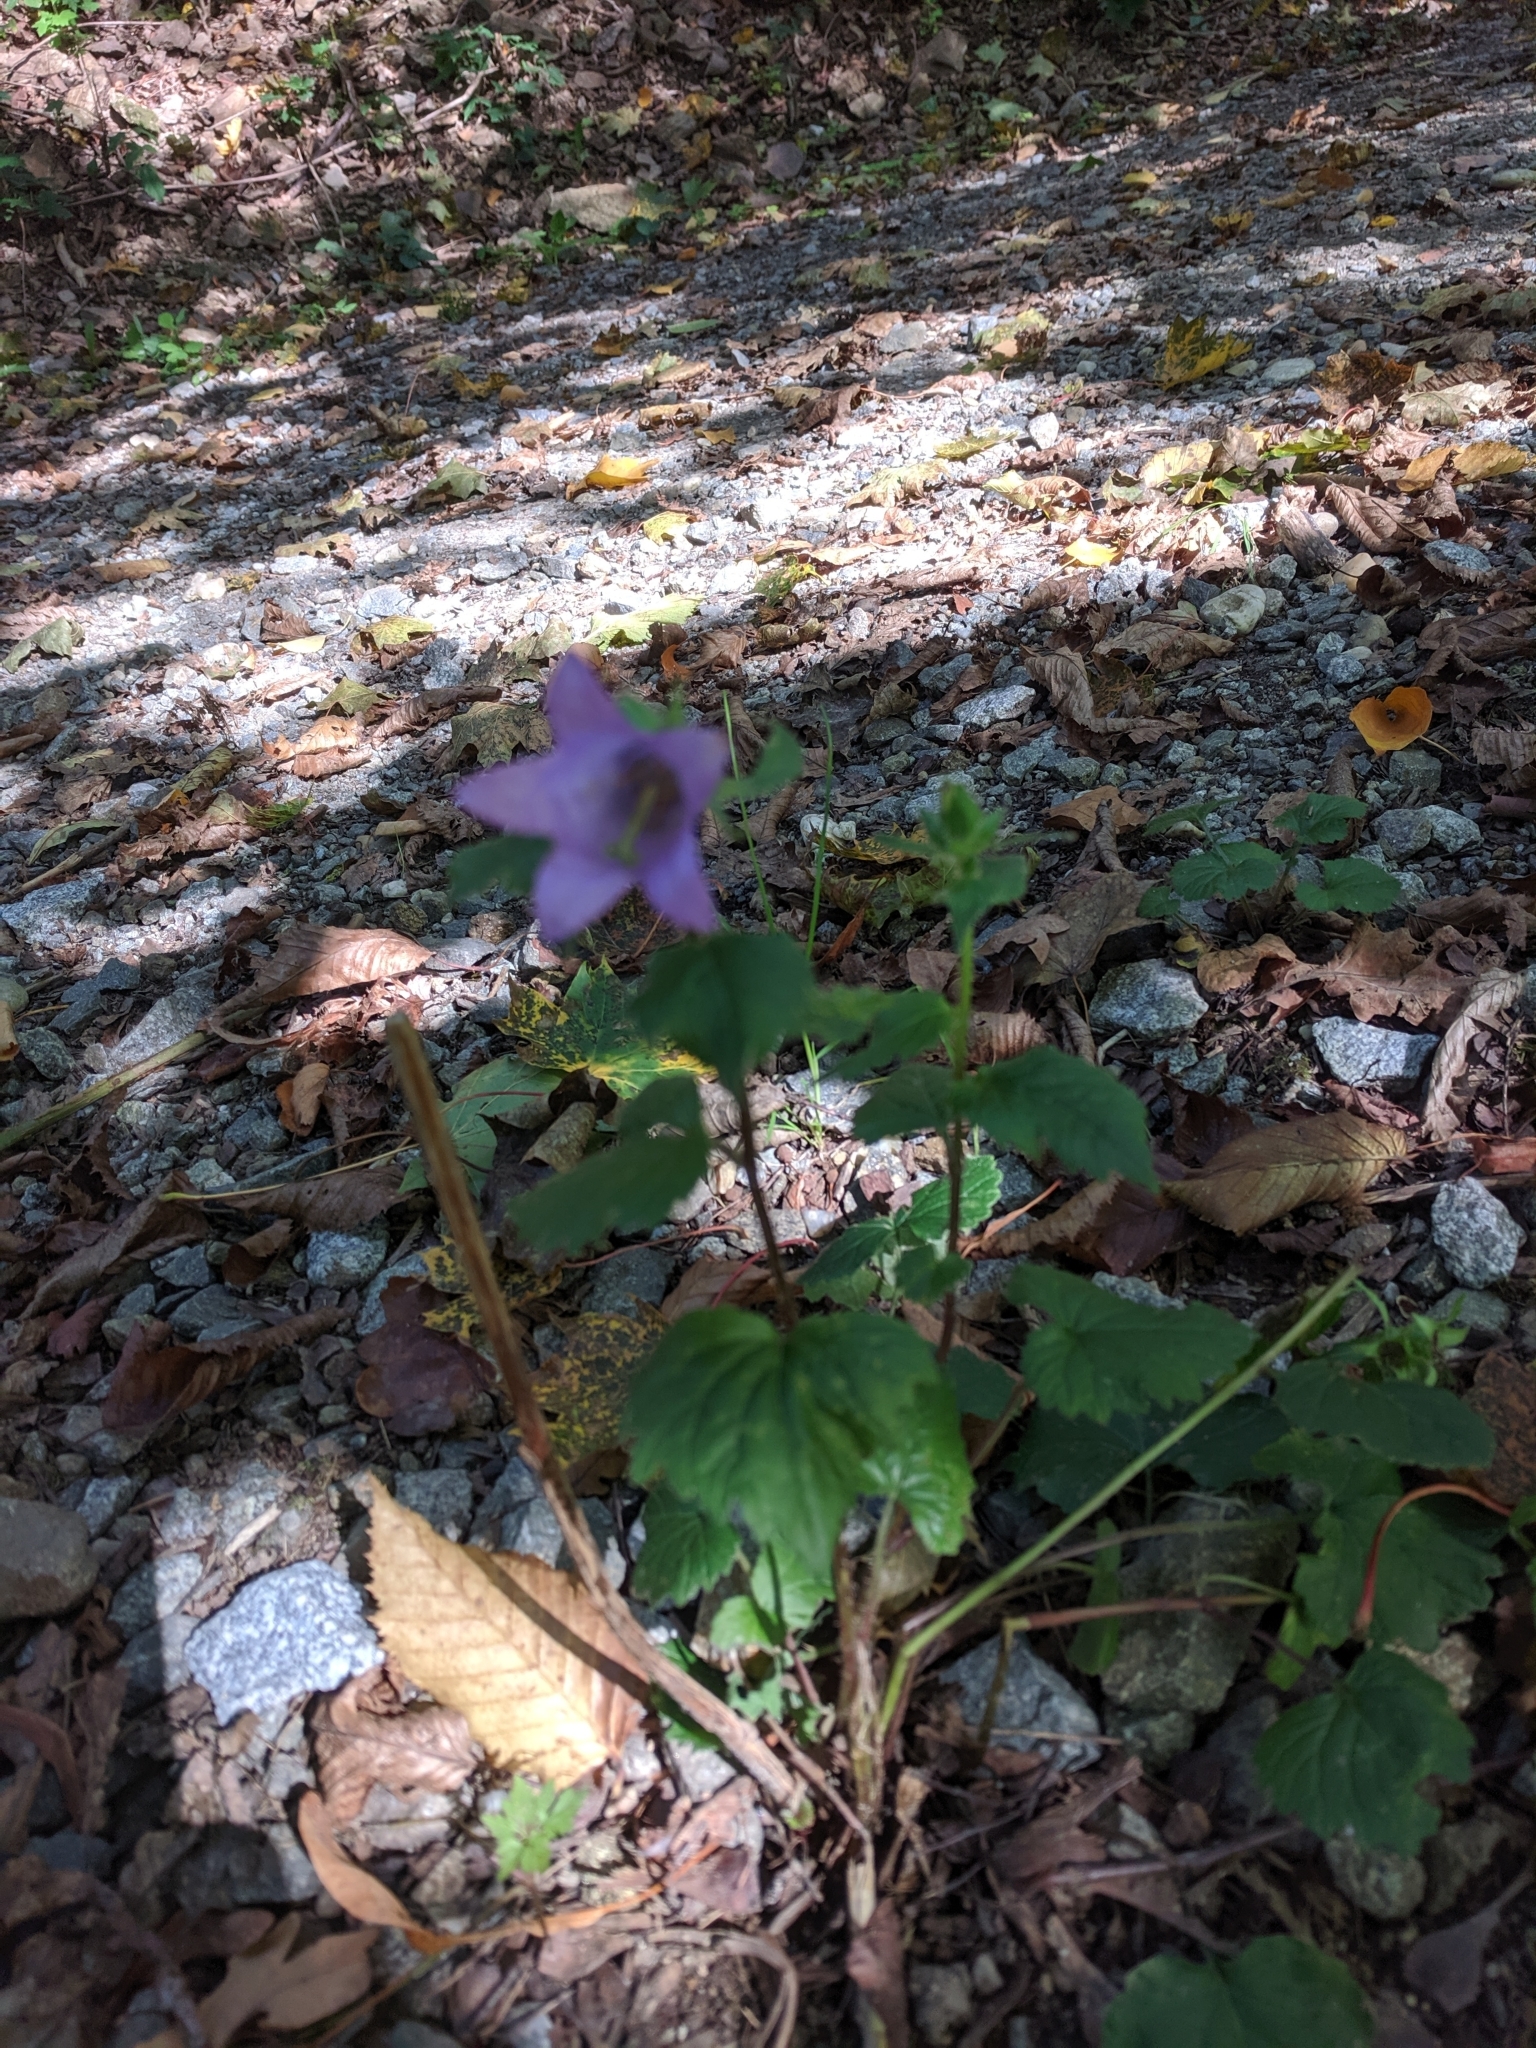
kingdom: Plantae
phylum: Tracheophyta
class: Magnoliopsida
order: Asterales
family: Campanulaceae
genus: Campanula
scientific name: Campanula trachelium
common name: Nettle-leaved bellflower
